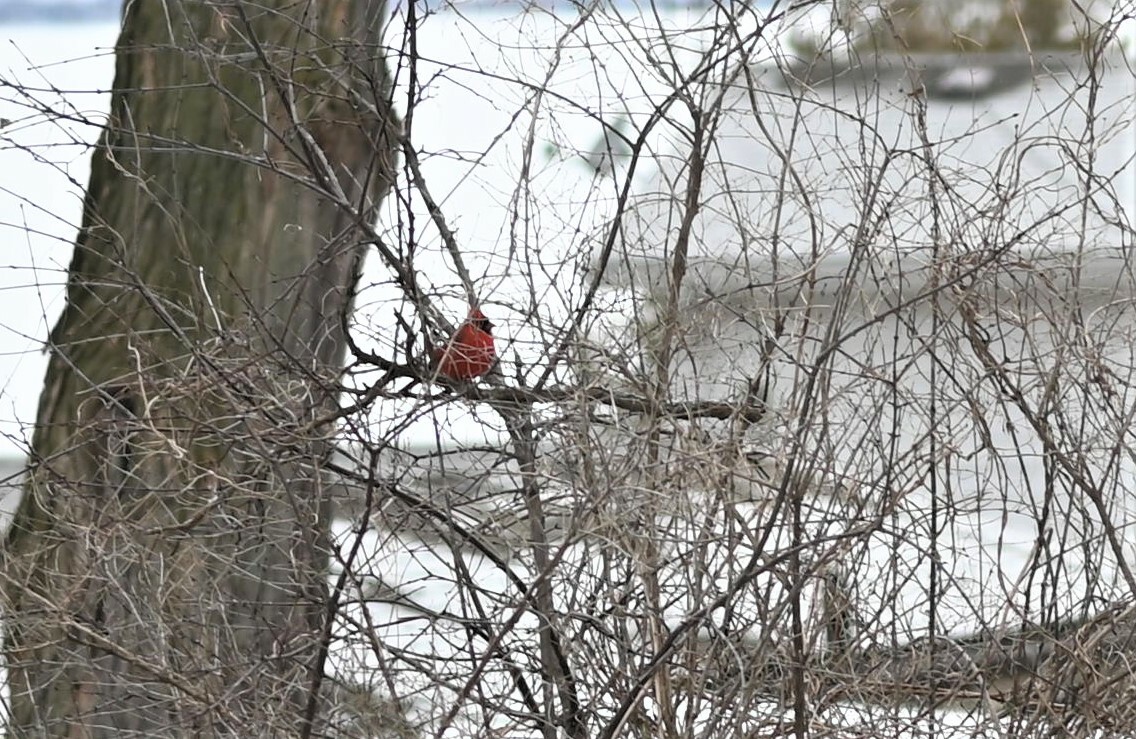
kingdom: Animalia
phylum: Chordata
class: Aves
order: Passeriformes
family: Cardinalidae
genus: Cardinalis
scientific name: Cardinalis cardinalis
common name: Northern cardinal
